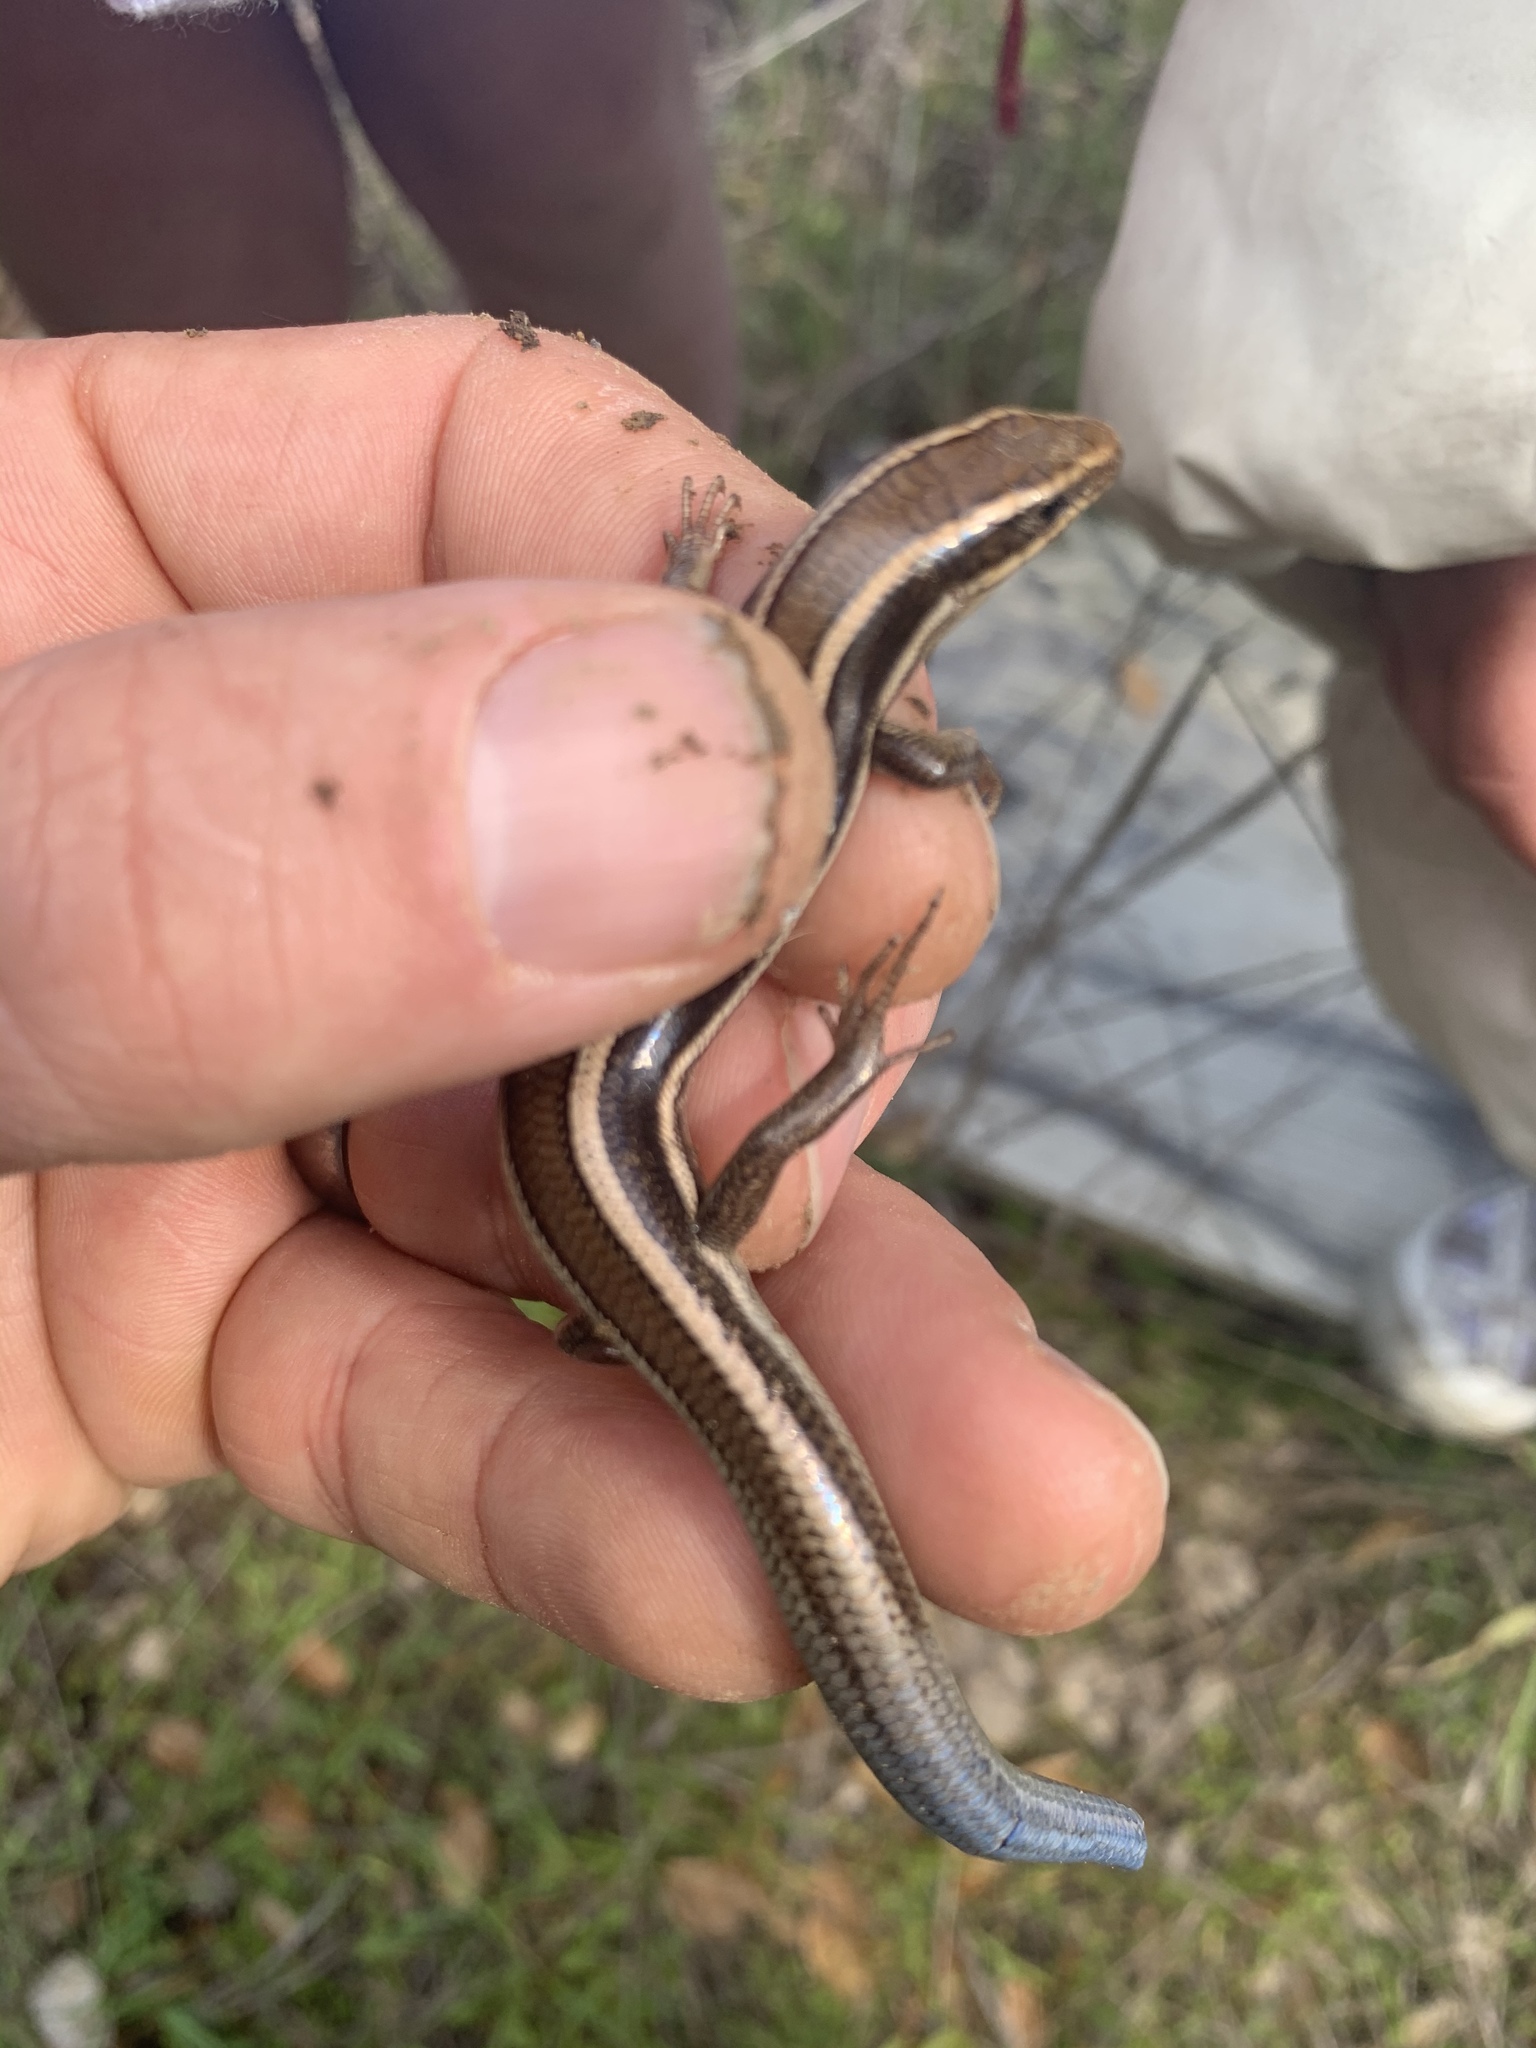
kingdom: Animalia
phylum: Chordata
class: Squamata
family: Scincidae
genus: Plestiodon
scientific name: Plestiodon skiltonianus
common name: Coronado island skink [interparietalis]
